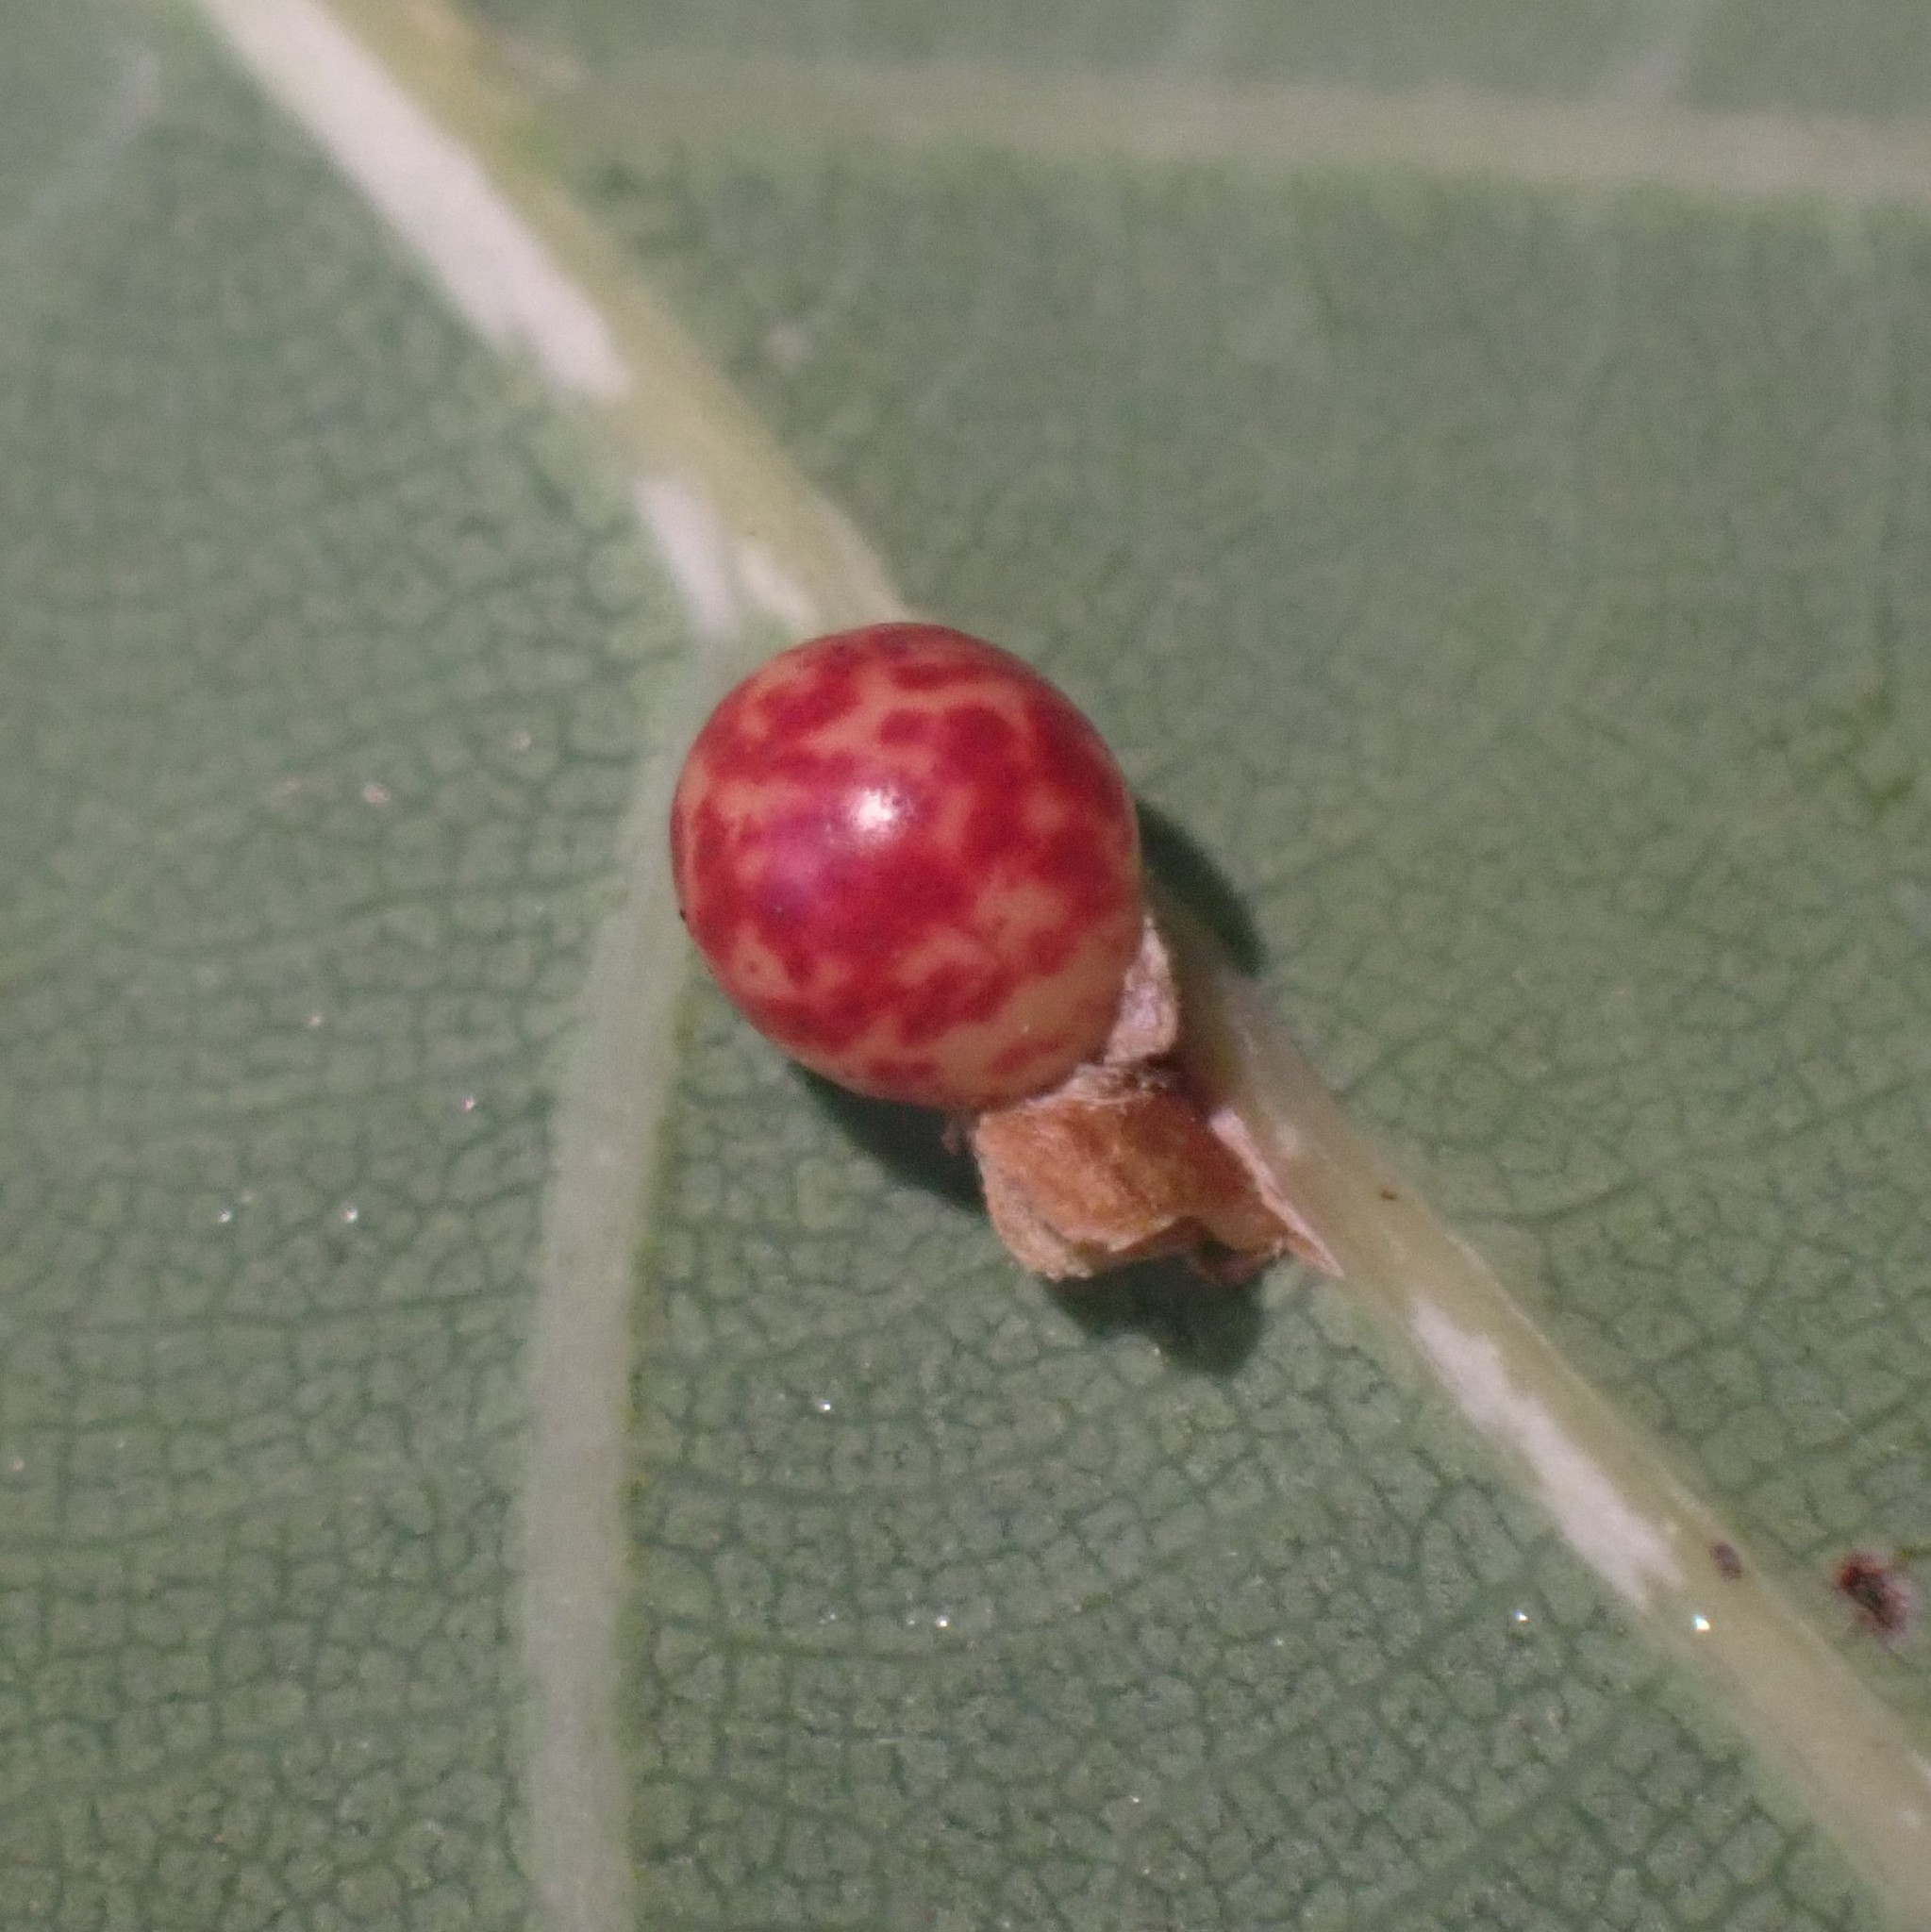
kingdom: Animalia
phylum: Arthropoda
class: Insecta
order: Hymenoptera
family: Cynipidae
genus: Neuroterus
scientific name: Neuroterus anthracinus
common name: Oyster gall
